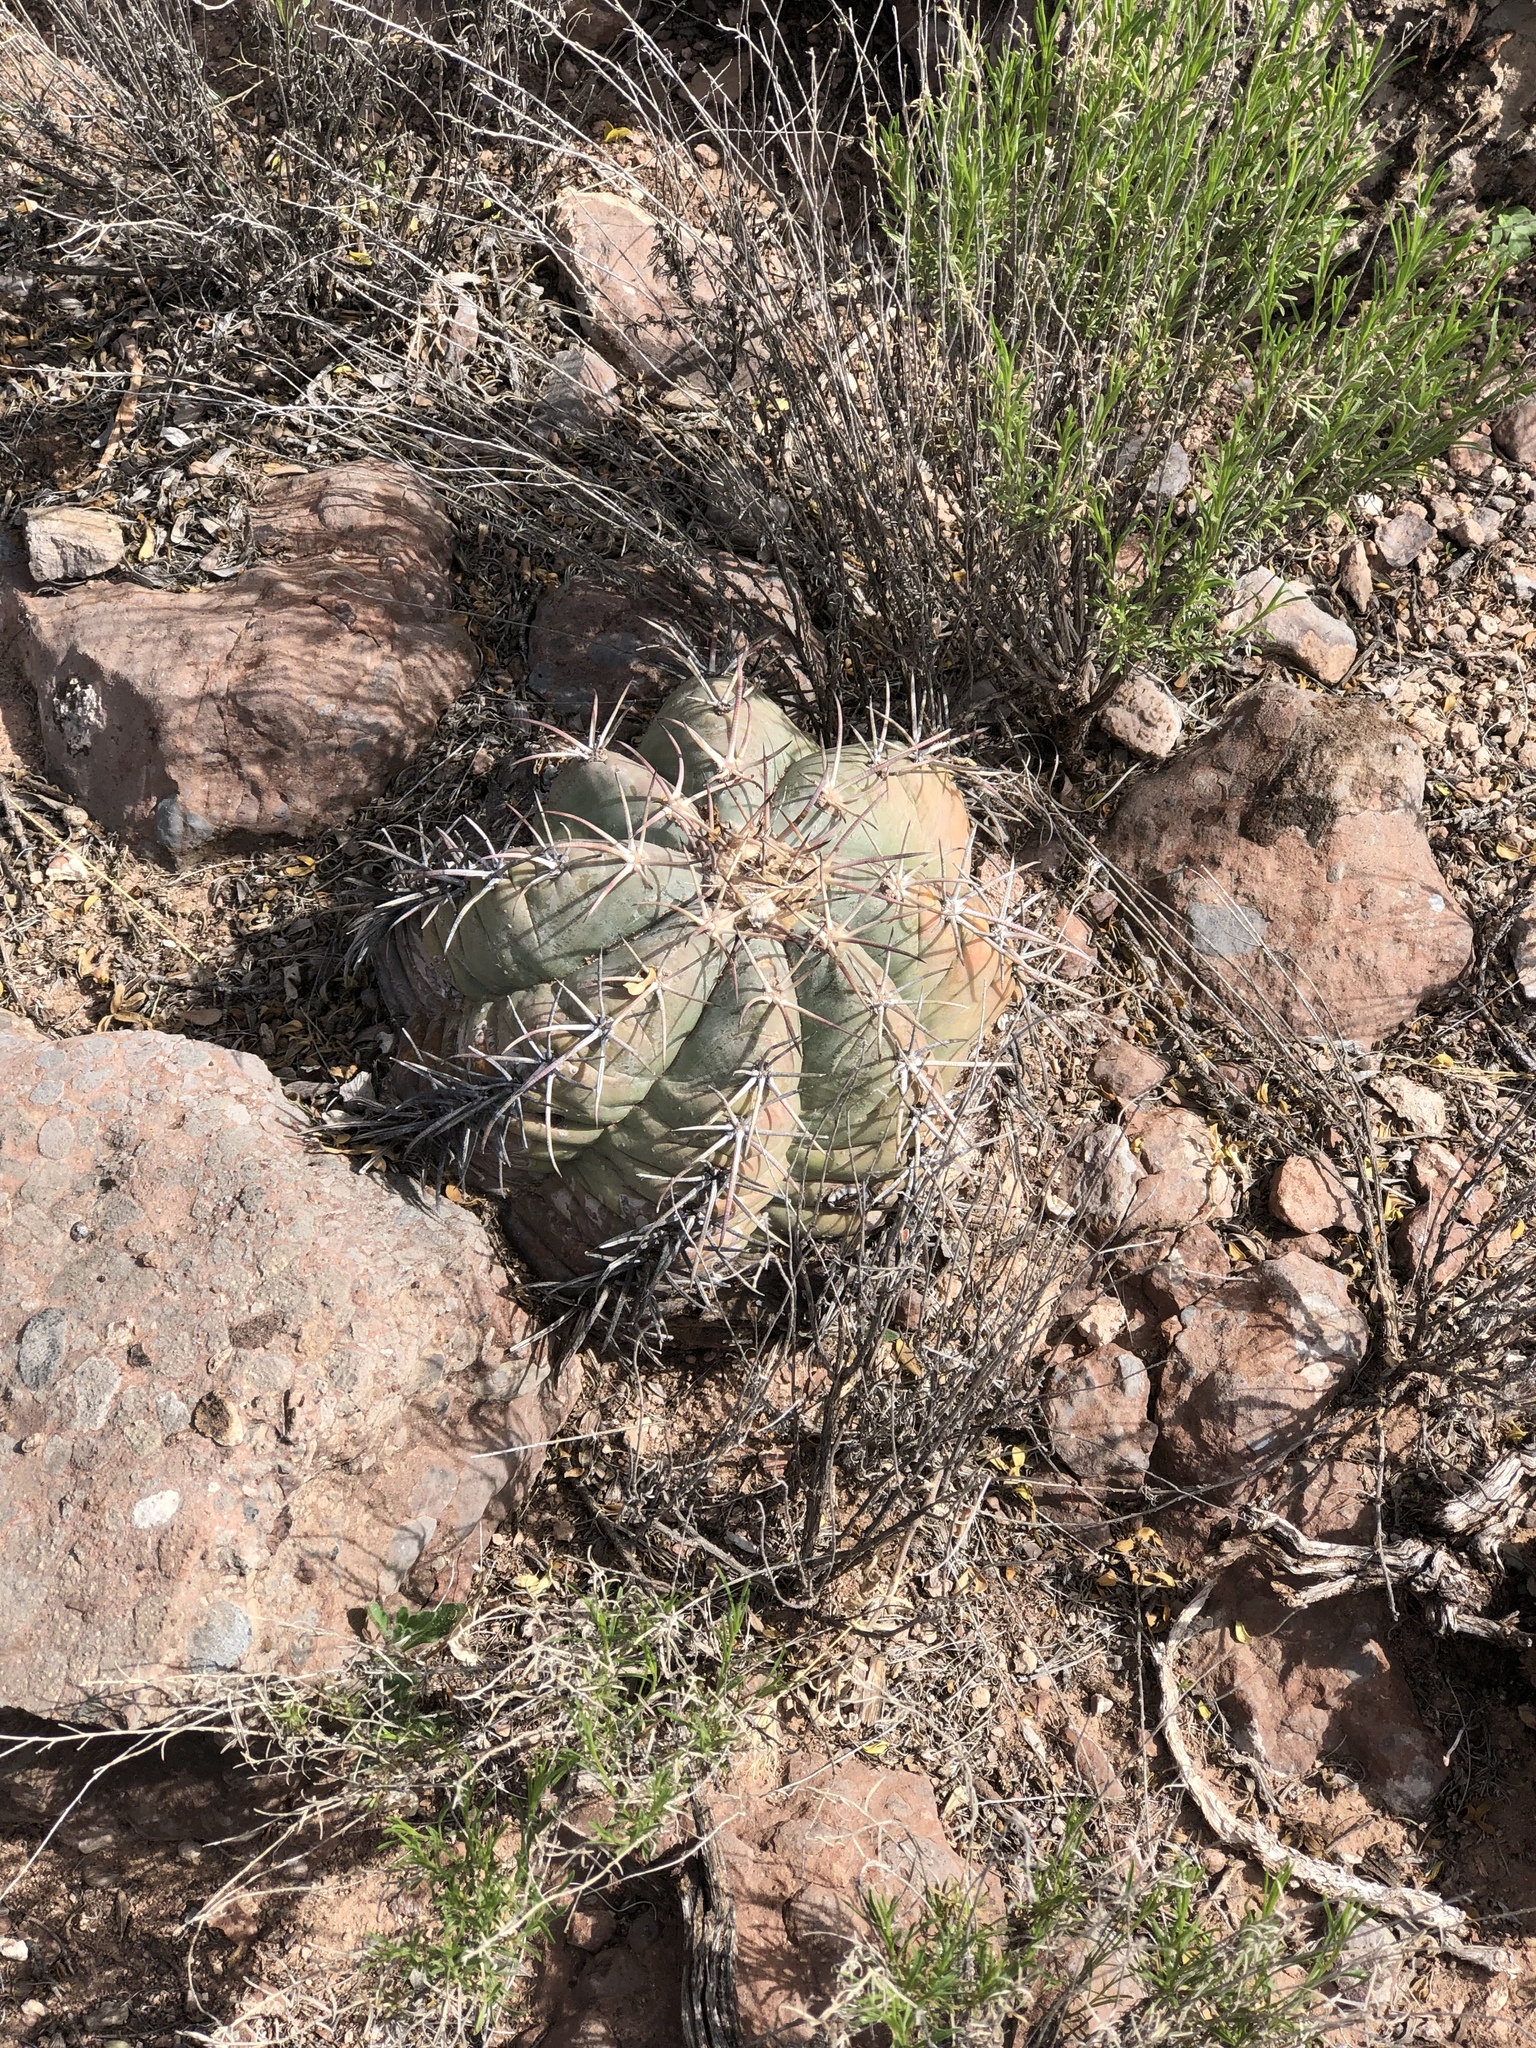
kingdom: Plantae
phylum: Tracheophyta
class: Magnoliopsida
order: Caryophyllales
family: Cactaceae
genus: Echinocactus
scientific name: Echinocactus horizonthalonius
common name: Devilshead
